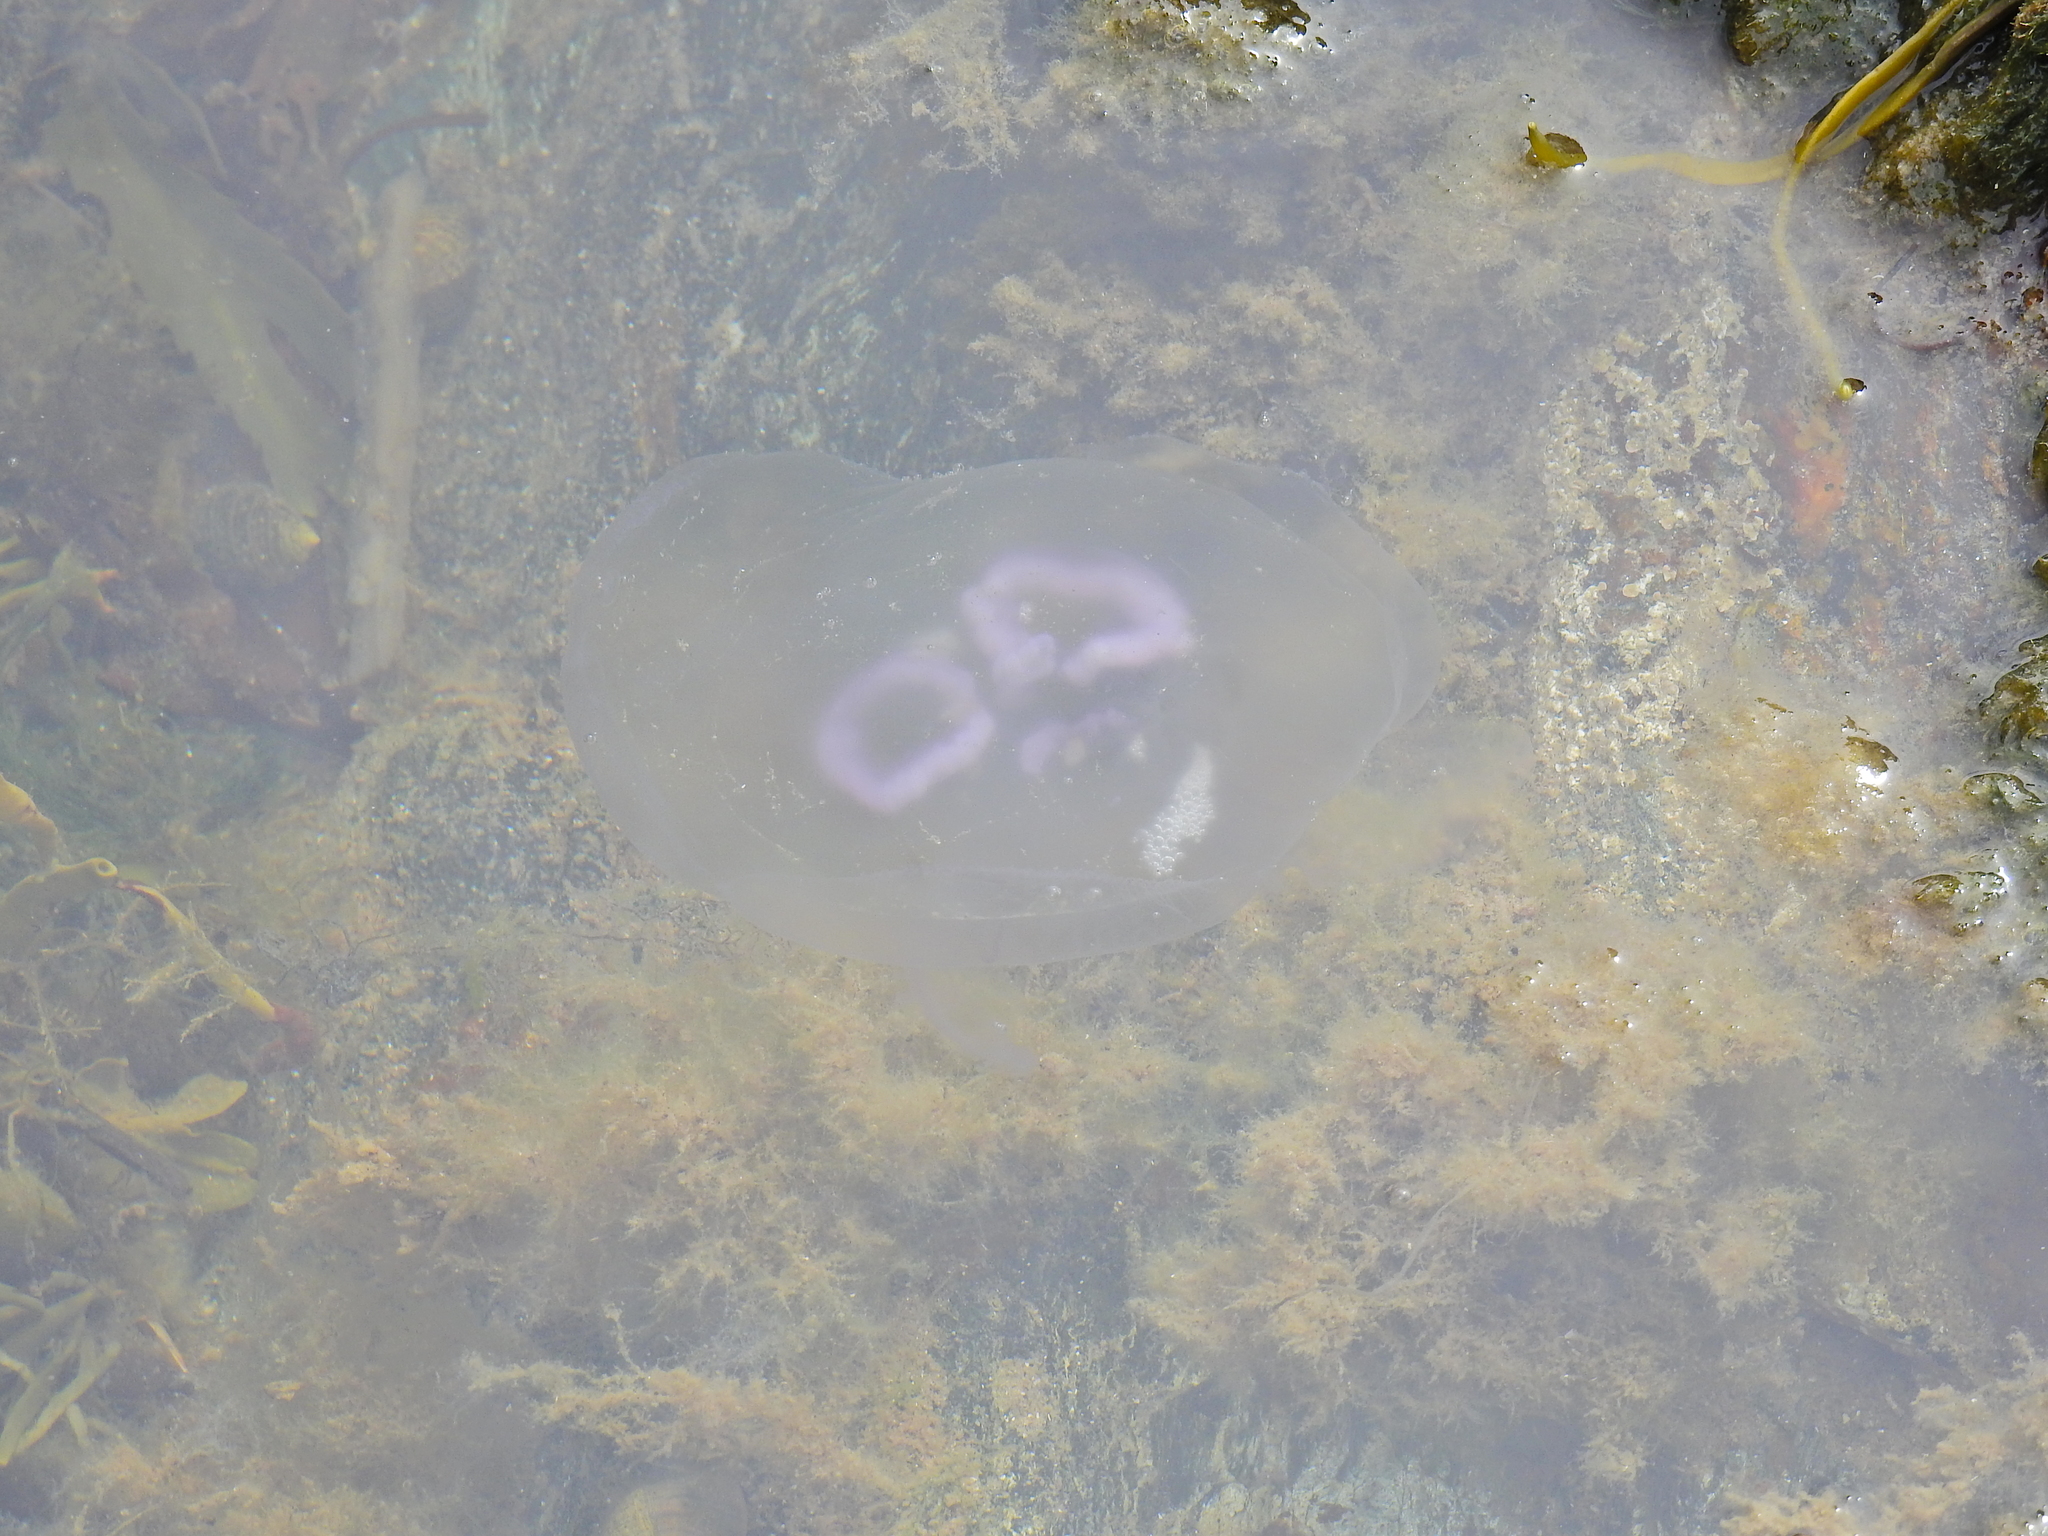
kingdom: Animalia
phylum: Cnidaria
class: Scyphozoa
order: Semaeostomeae
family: Ulmaridae
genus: Aurelia
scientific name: Aurelia aurita
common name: Moon jellyfish
